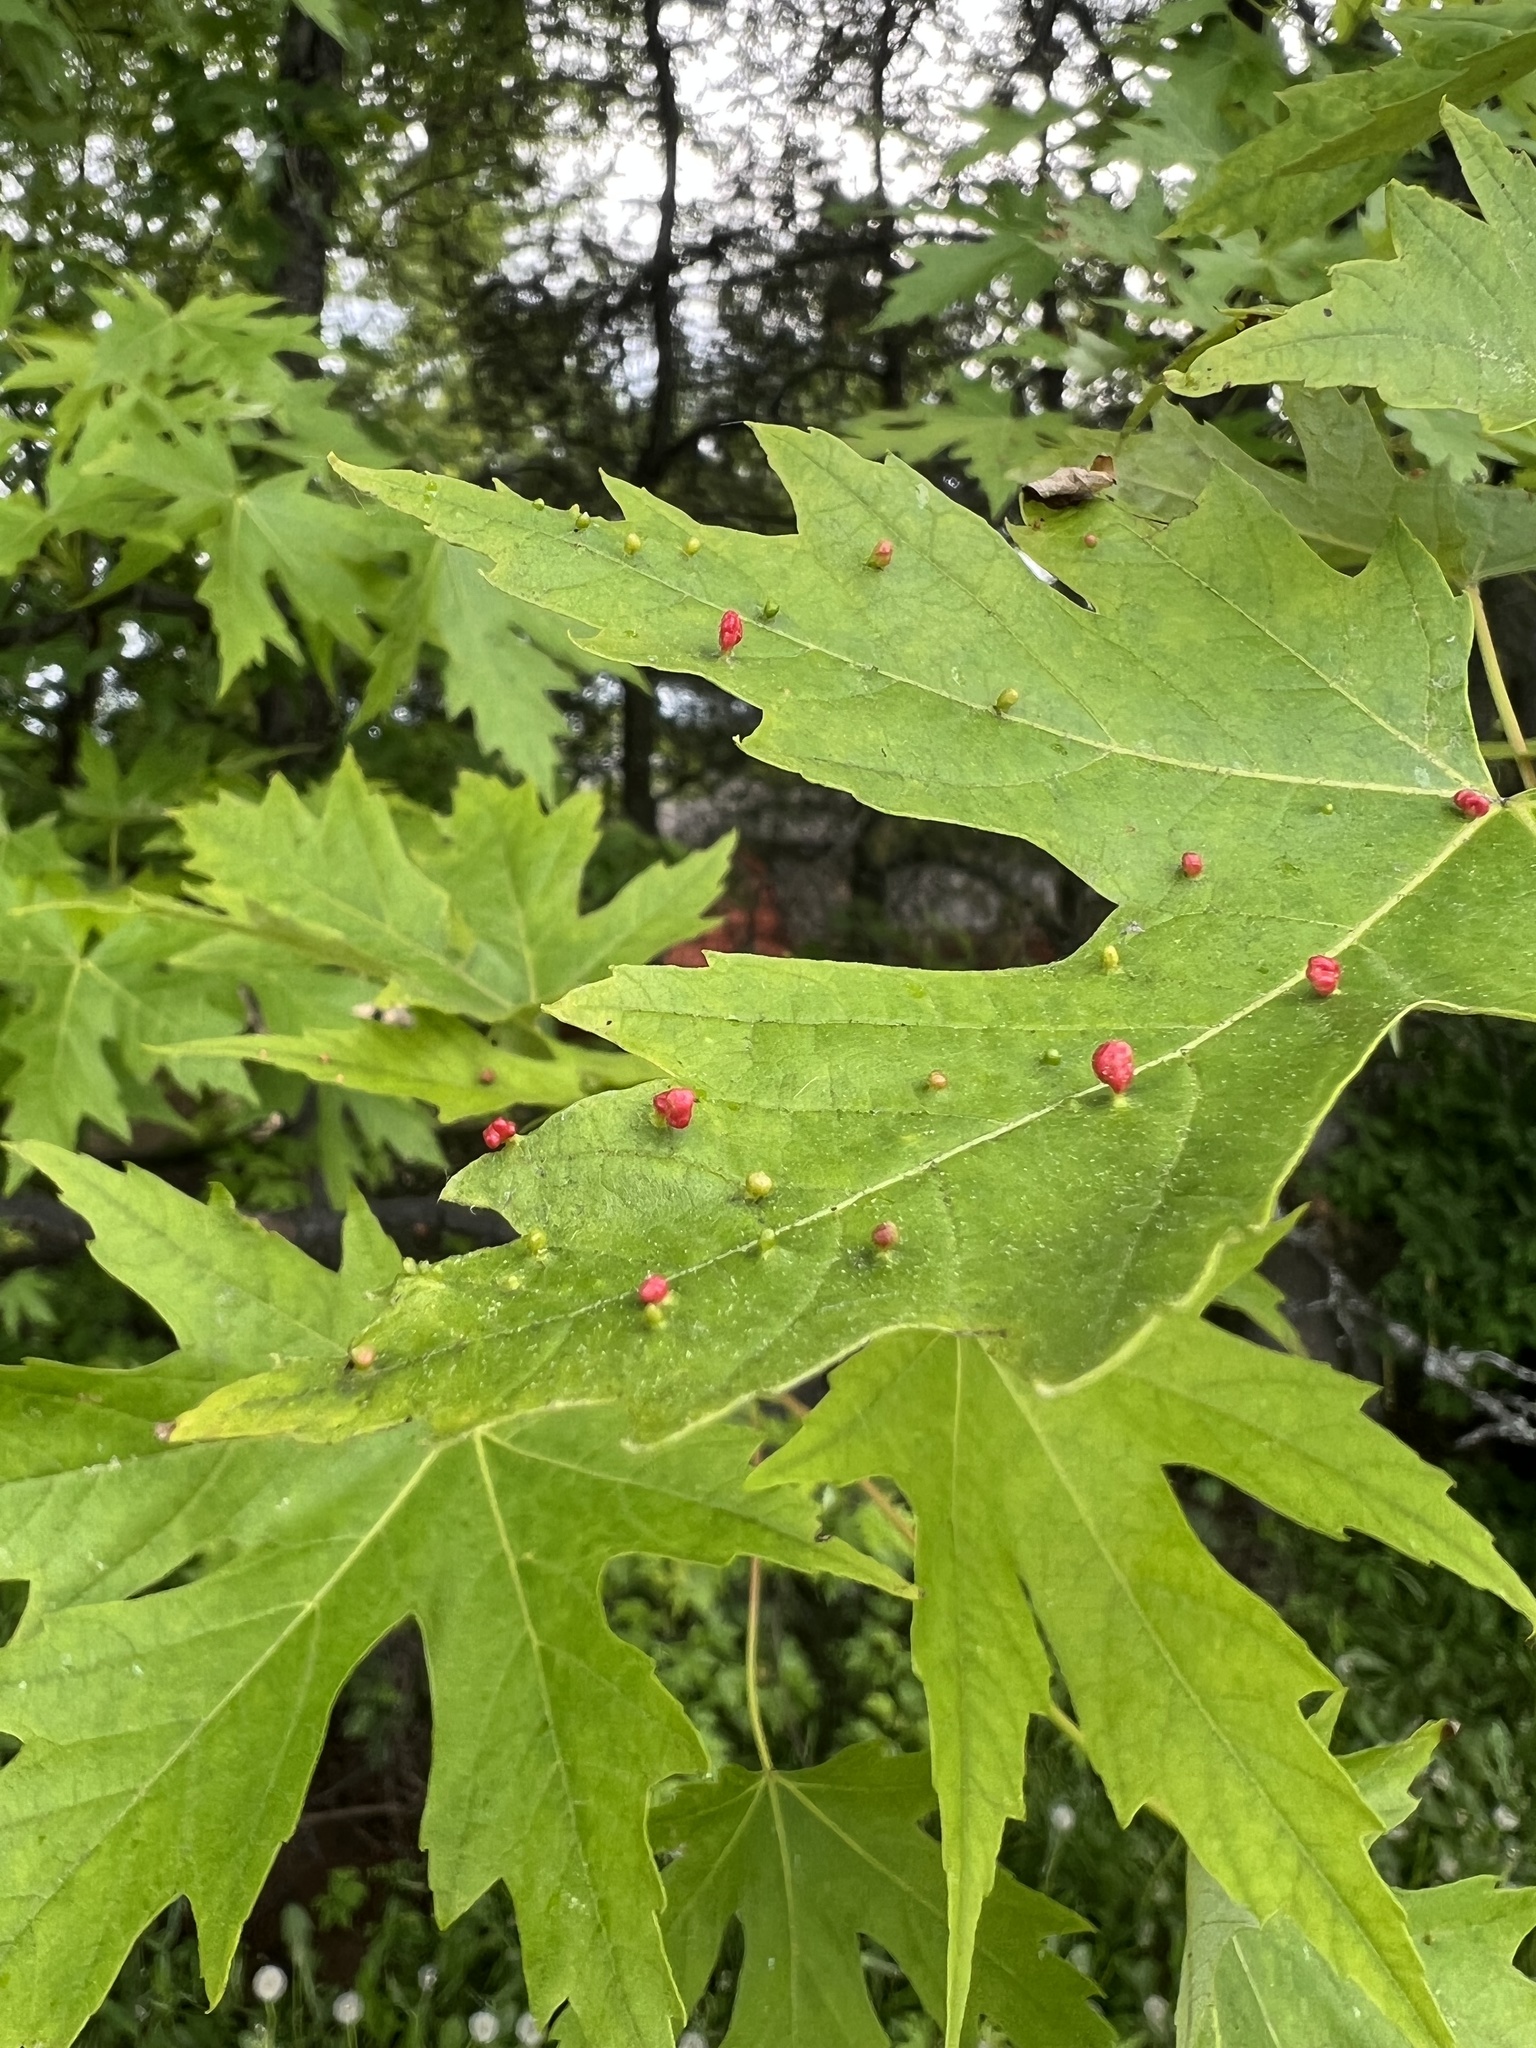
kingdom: Animalia
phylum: Arthropoda
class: Arachnida
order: Trombidiformes
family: Eriophyidae
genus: Vasates
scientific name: Vasates quadripedes
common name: Maple bladder gall mite
